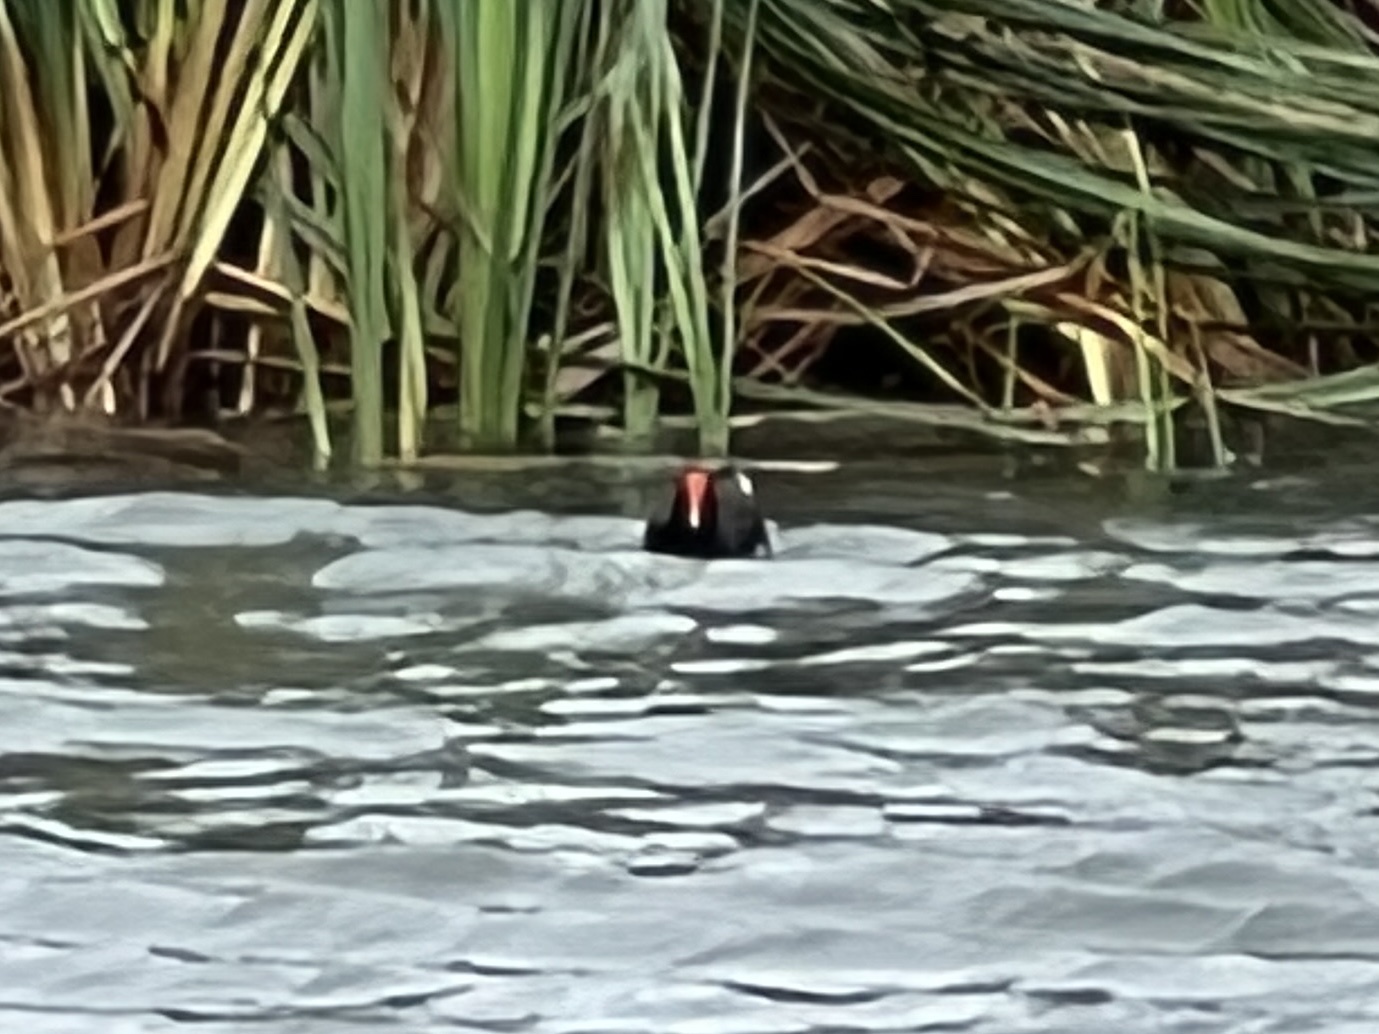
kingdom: Animalia
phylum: Chordata
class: Aves
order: Gruiformes
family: Rallidae
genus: Gallinula
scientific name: Gallinula chloropus
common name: Common moorhen
